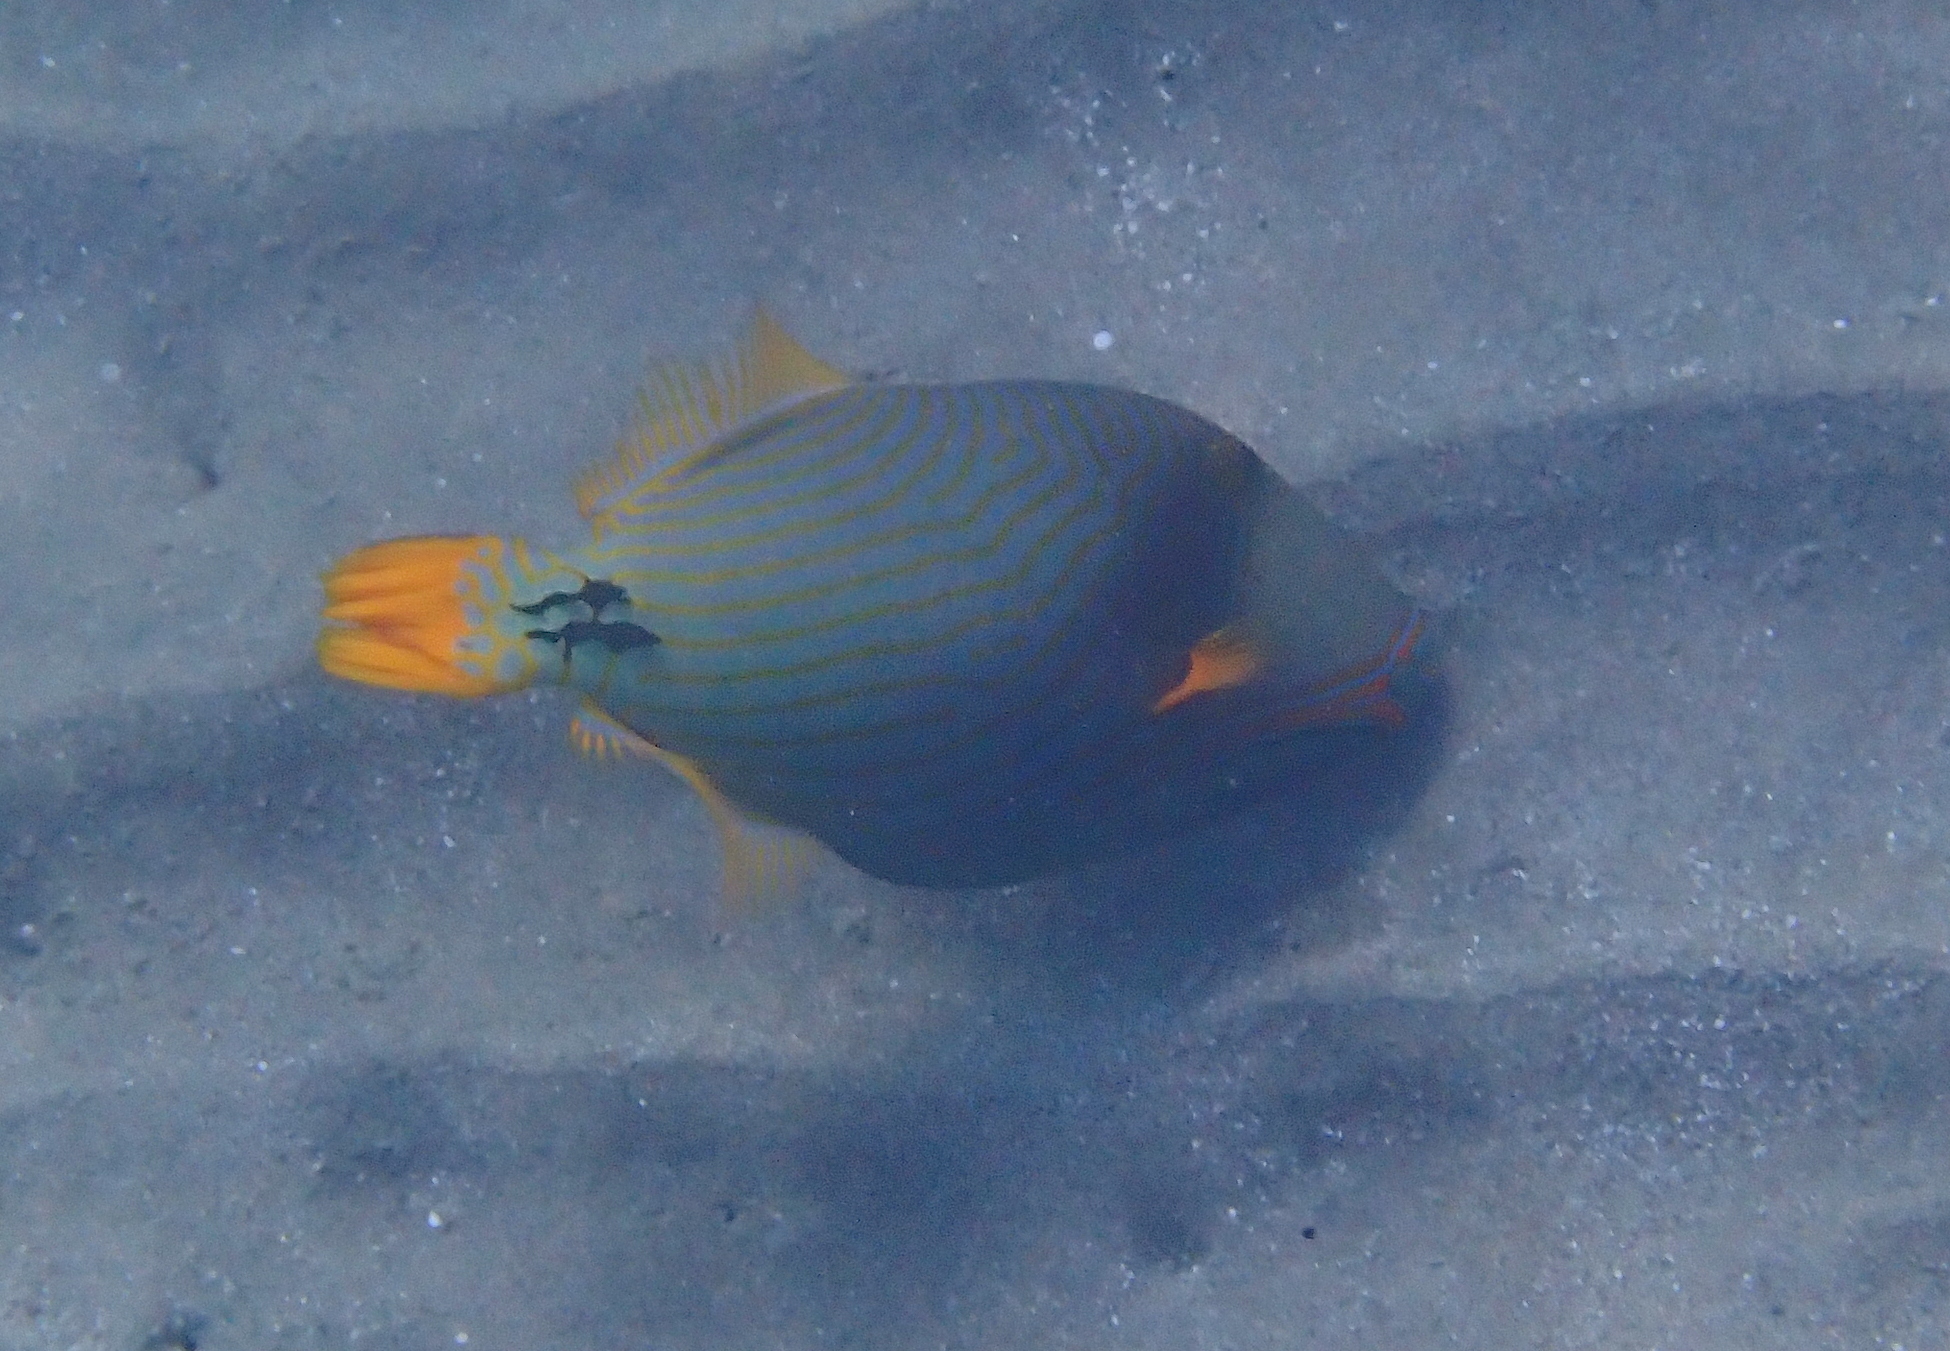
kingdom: Animalia
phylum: Chordata
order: Tetraodontiformes
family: Balistidae
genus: Balistapus
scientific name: Balistapus undulatus
